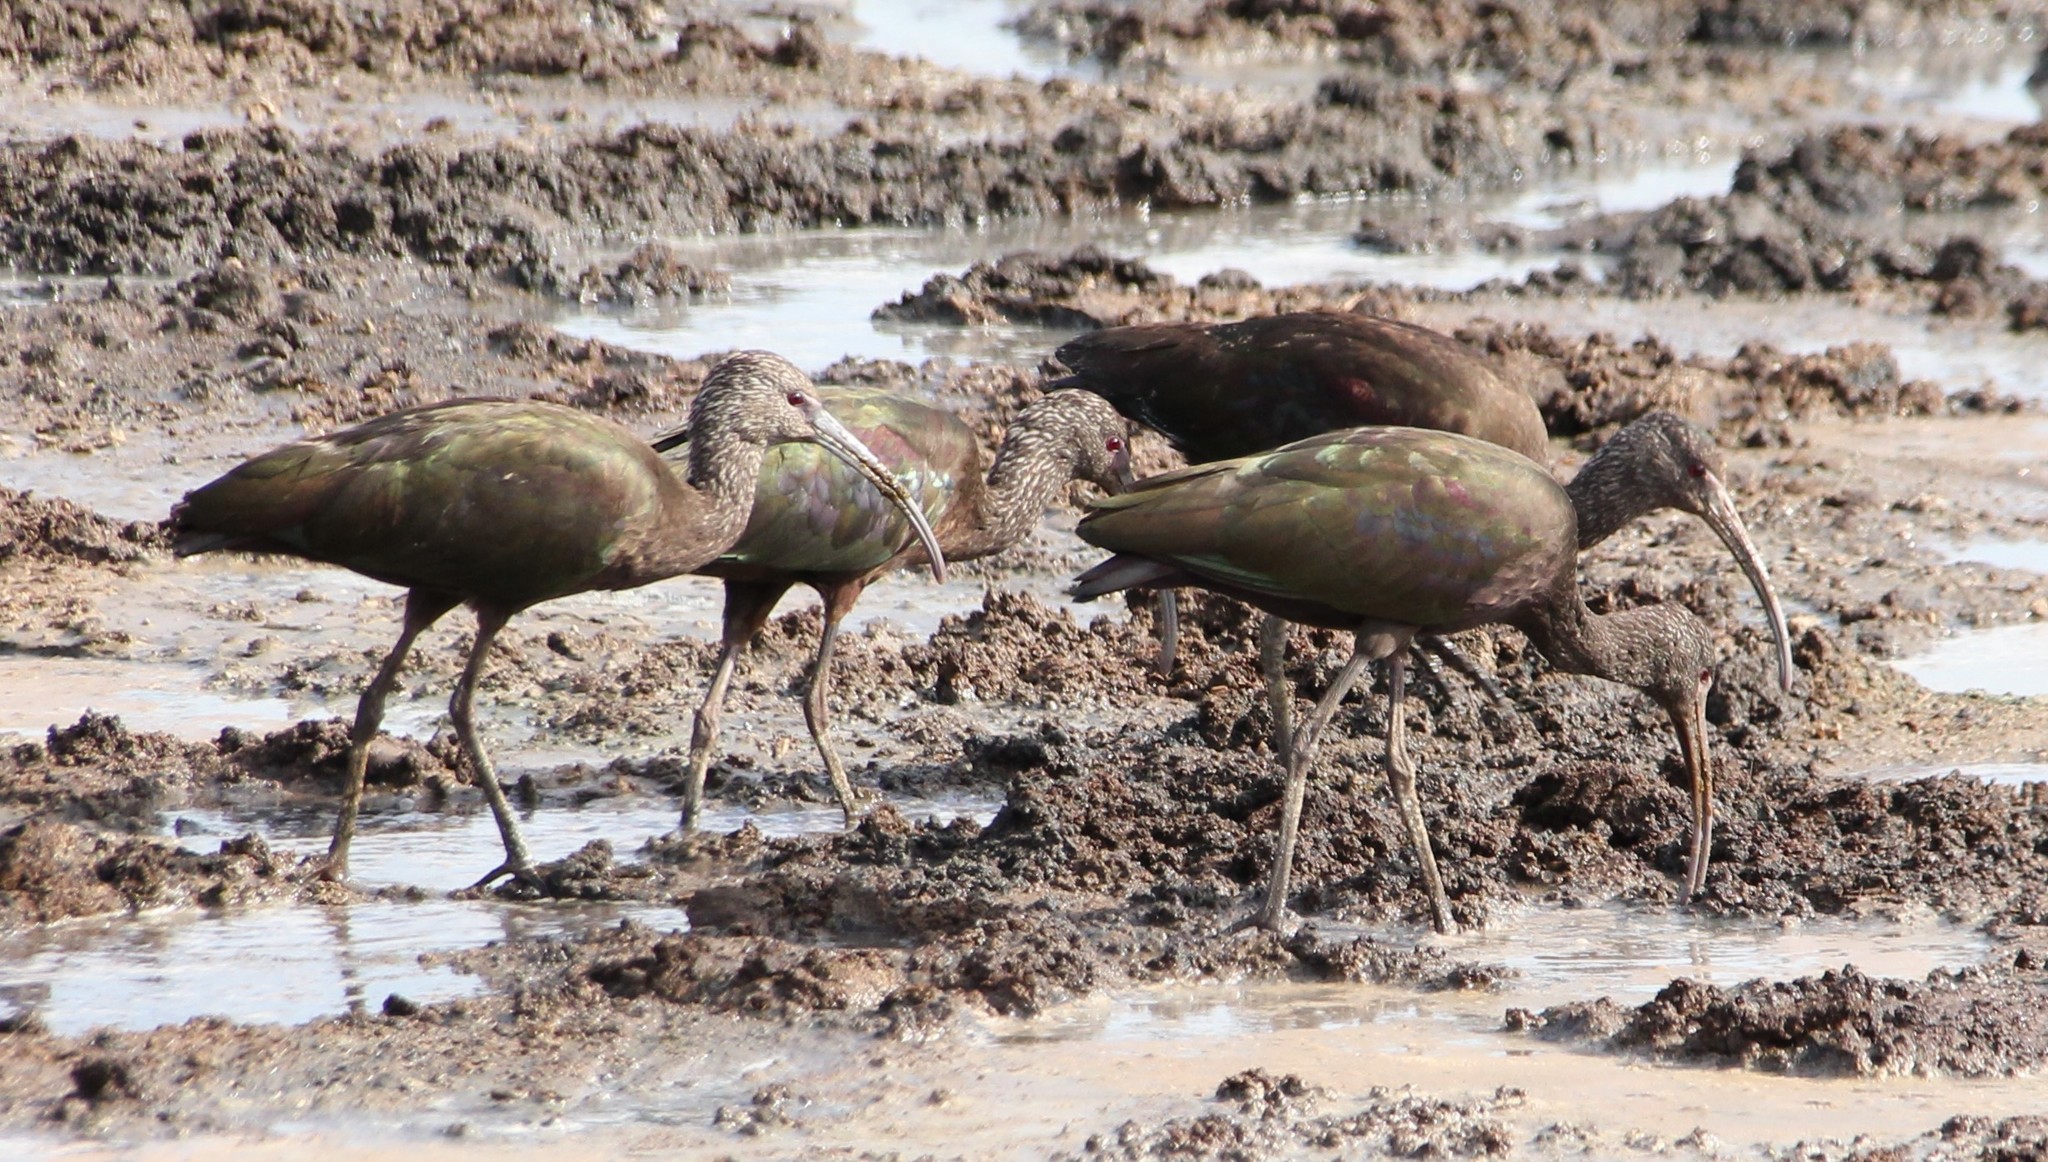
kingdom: Animalia
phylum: Chordata
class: Aves
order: Pelecaniformes
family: Threskiornithidae
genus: Plegadis
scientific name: Plegadis chihi
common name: White-faced ibis
